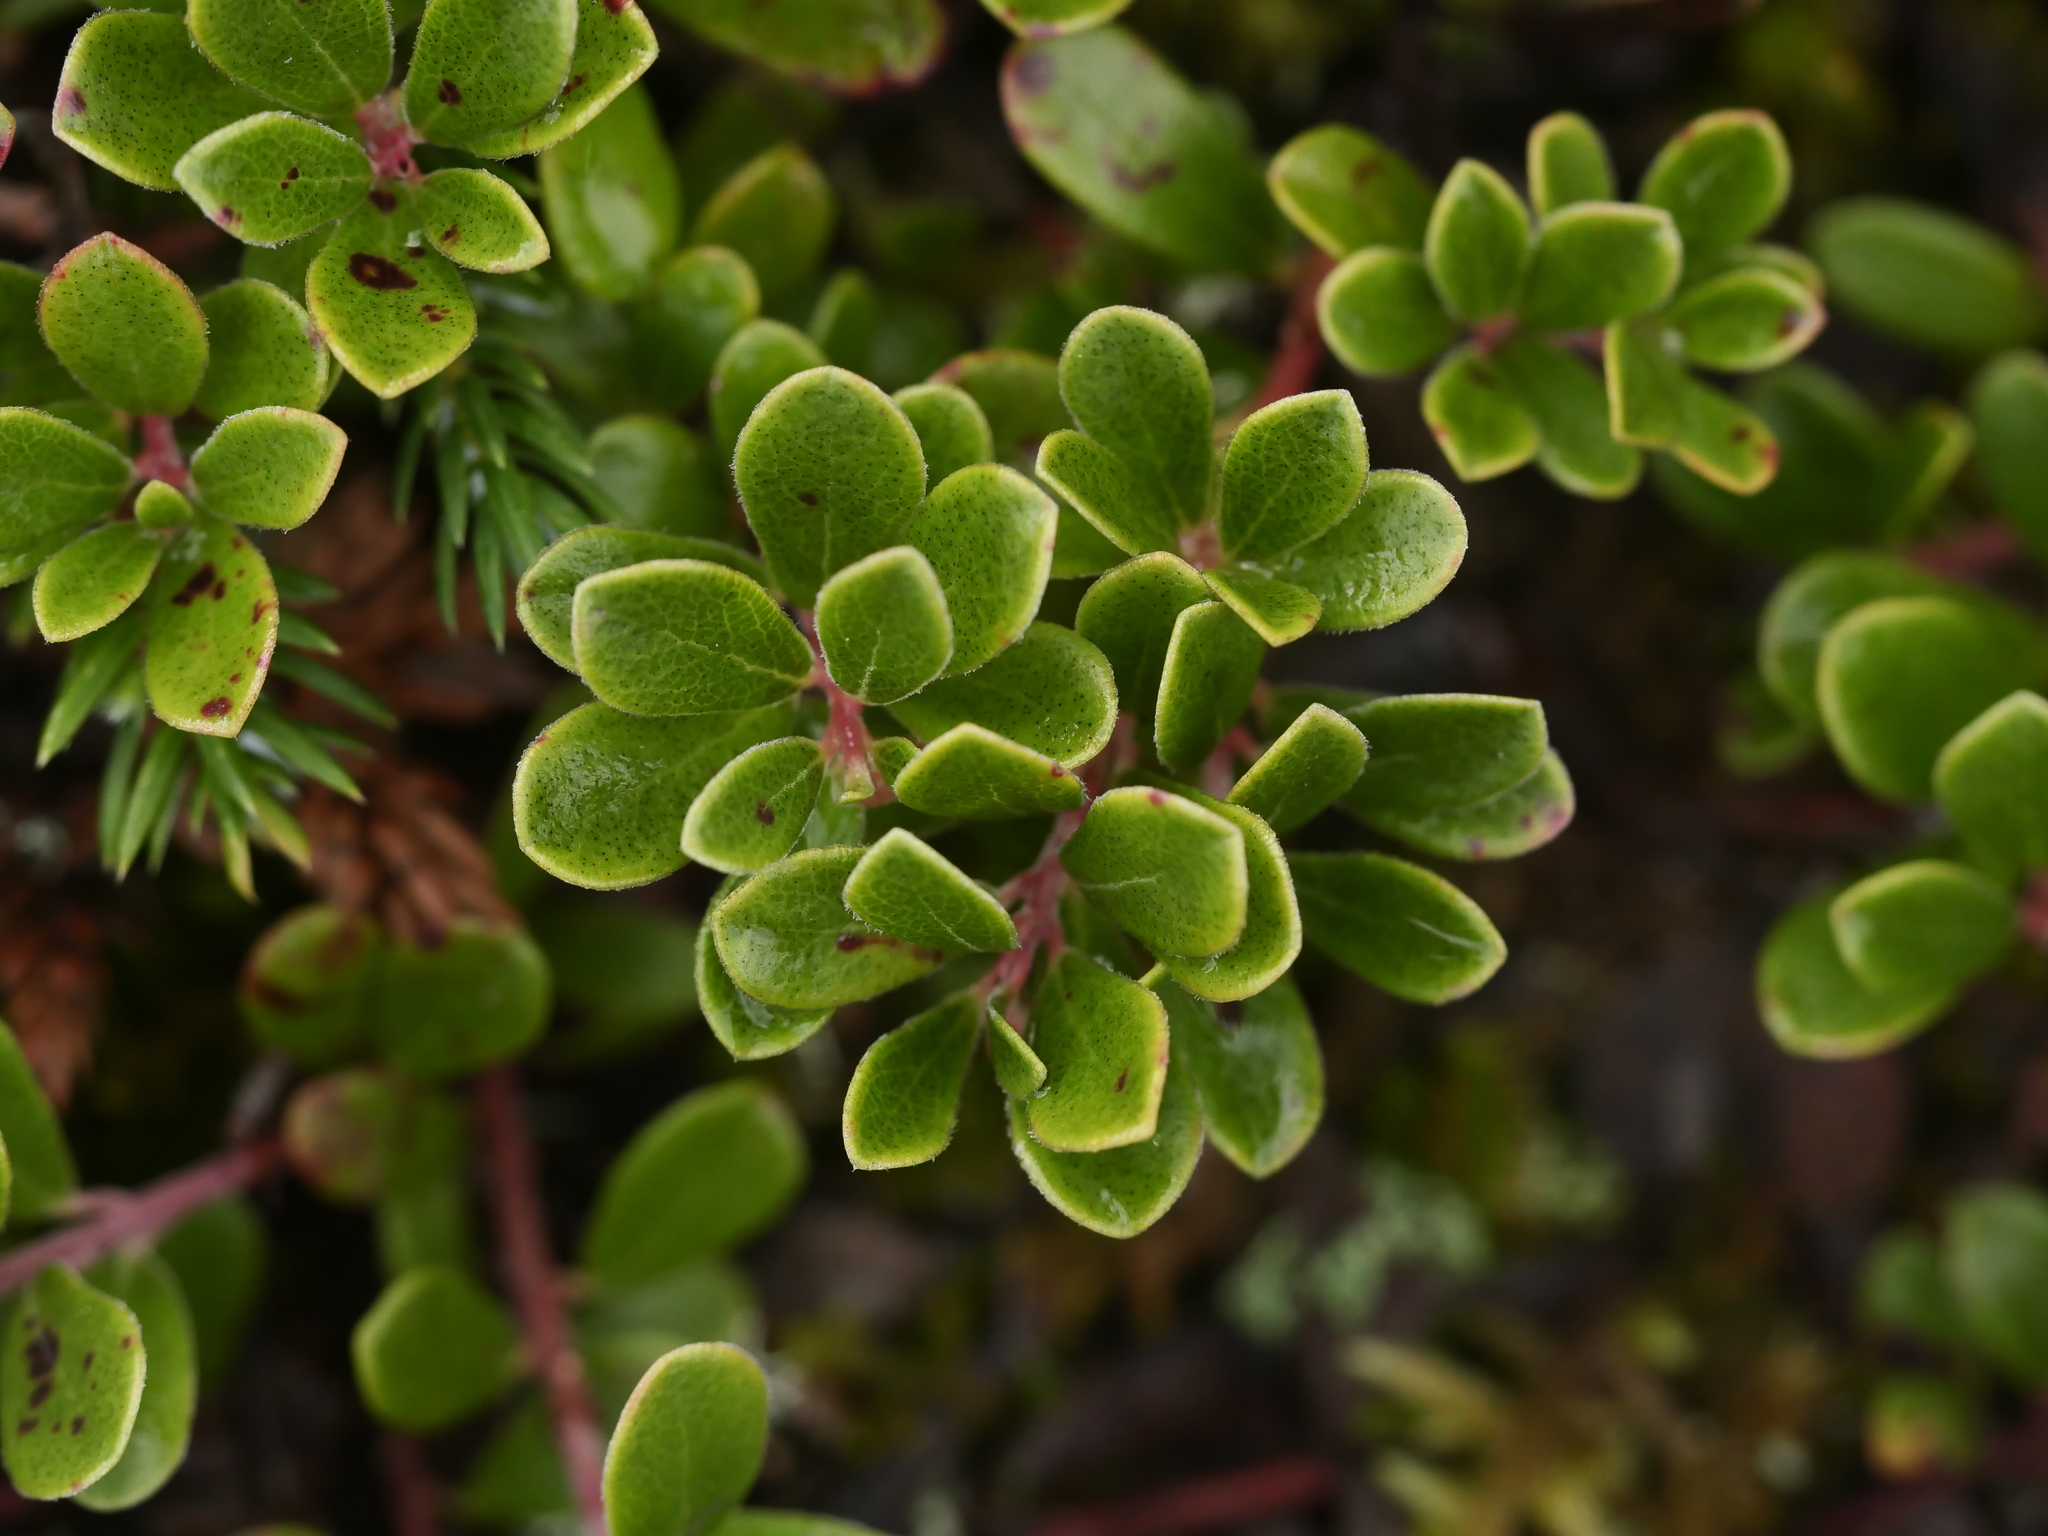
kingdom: Plantae
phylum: Tracheophyta
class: Magnoliopsida
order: Ericales
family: Ericaceae
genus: Arctostaphylos
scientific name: Arctostaphylos uva-ursi
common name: Bearberry
